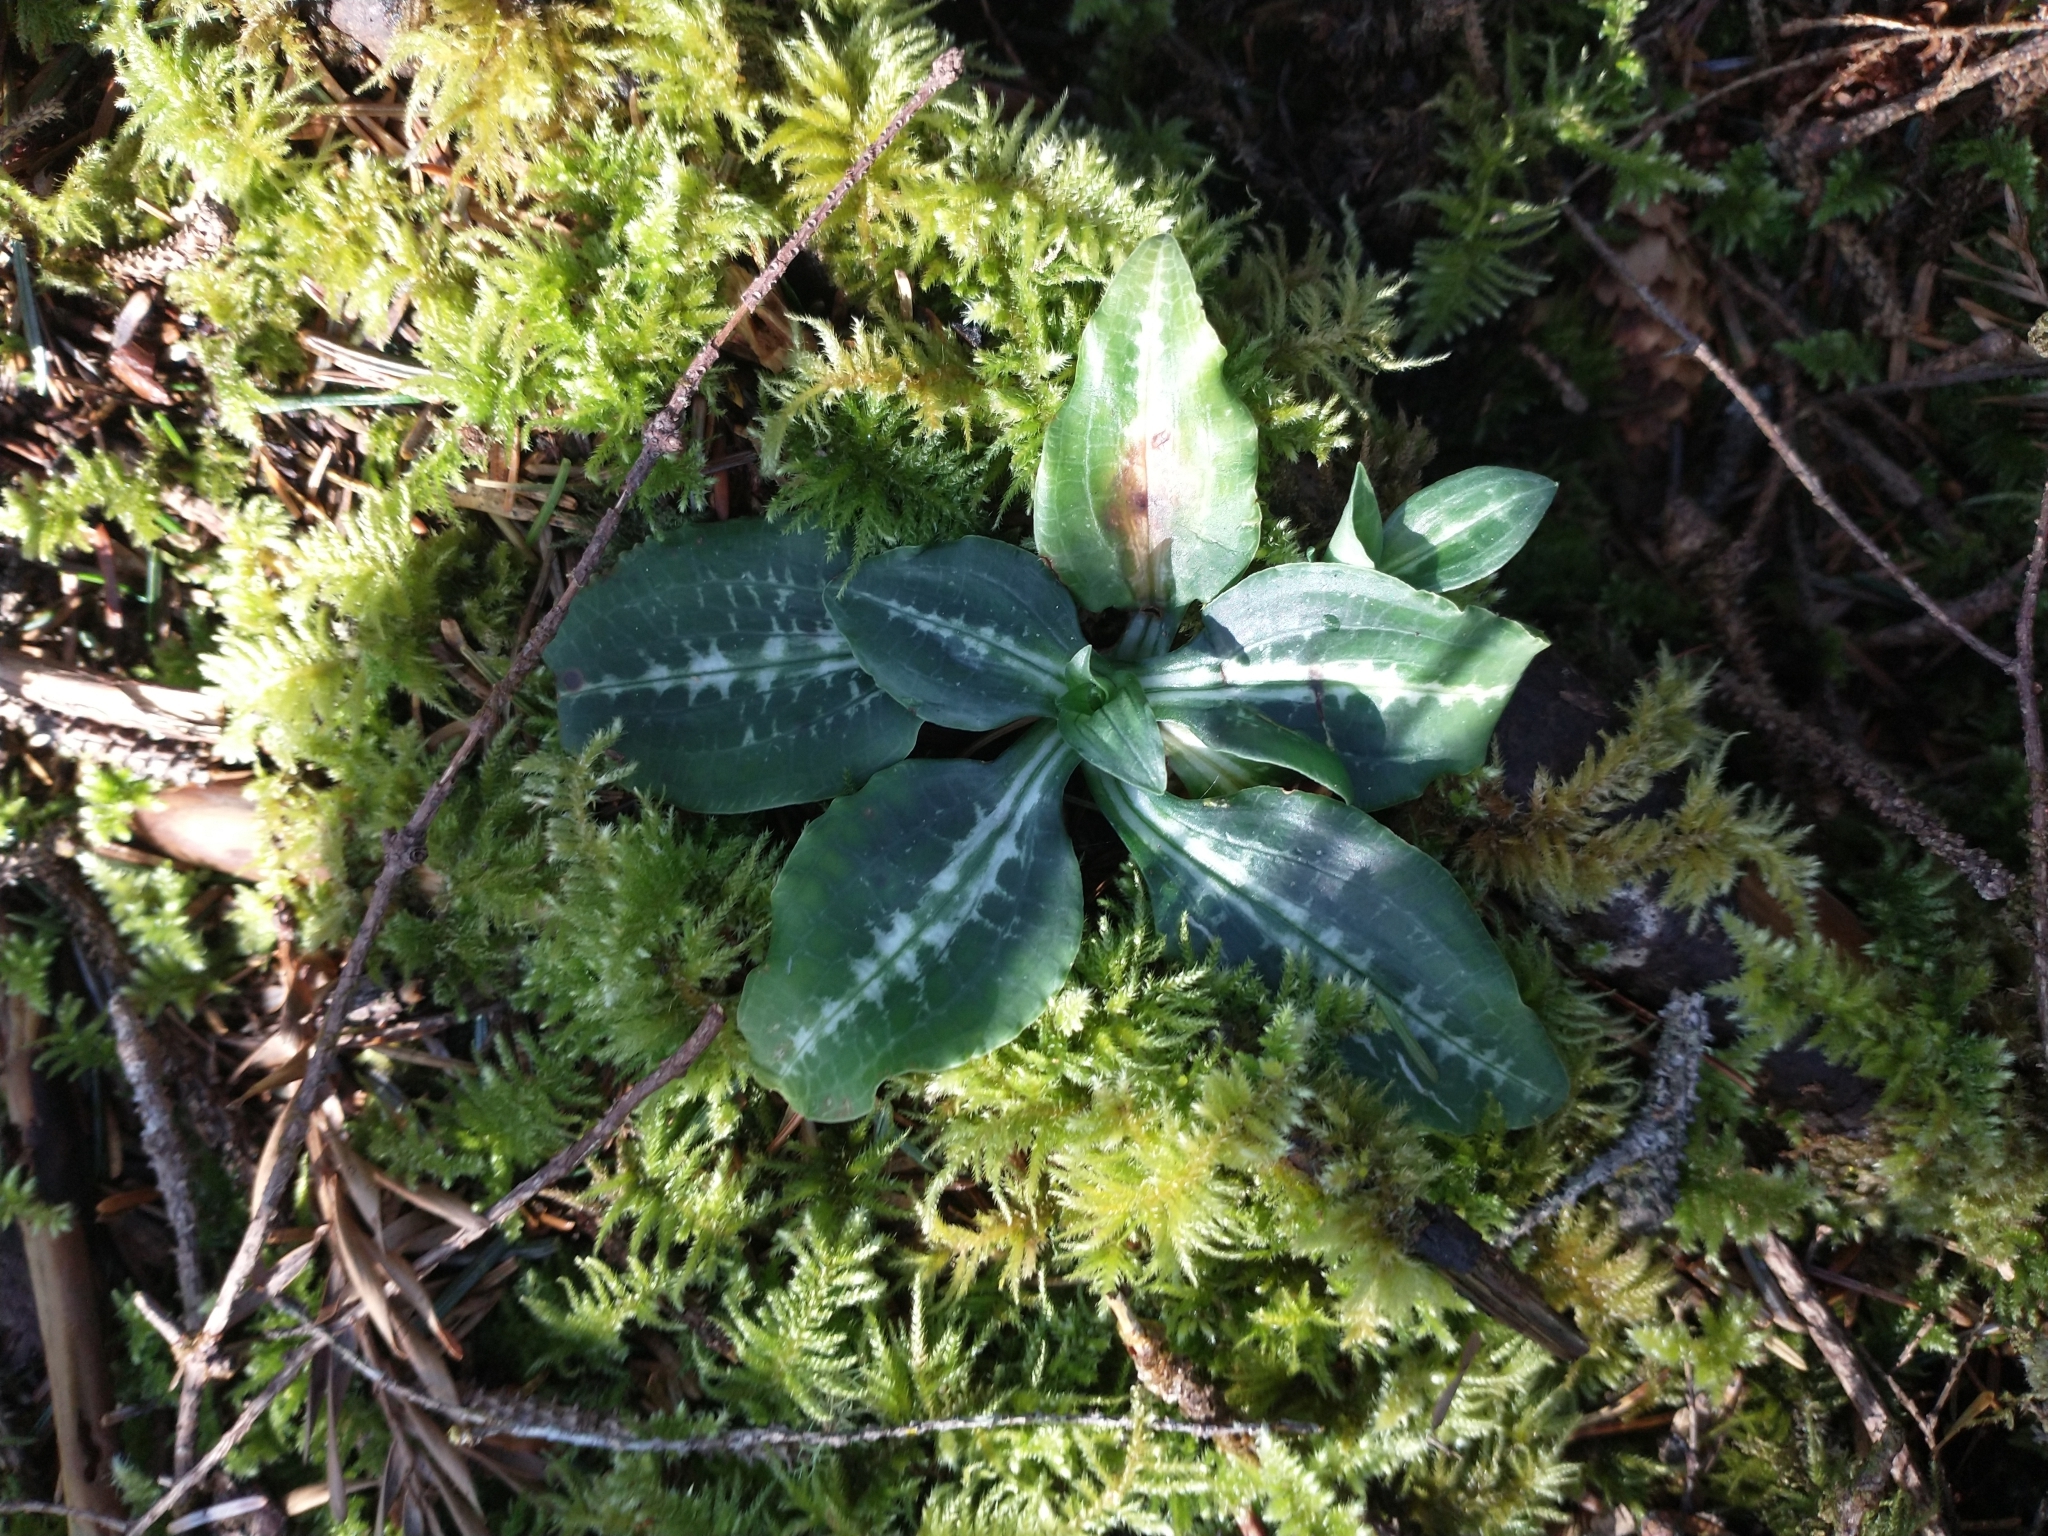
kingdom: Plantae
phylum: Tracheophyta
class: Liliopsida
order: Asparagales
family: Orchidaceae
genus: Goodyera
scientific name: Goodyera oblongifolia
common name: Giant rattlesnake-plantain
